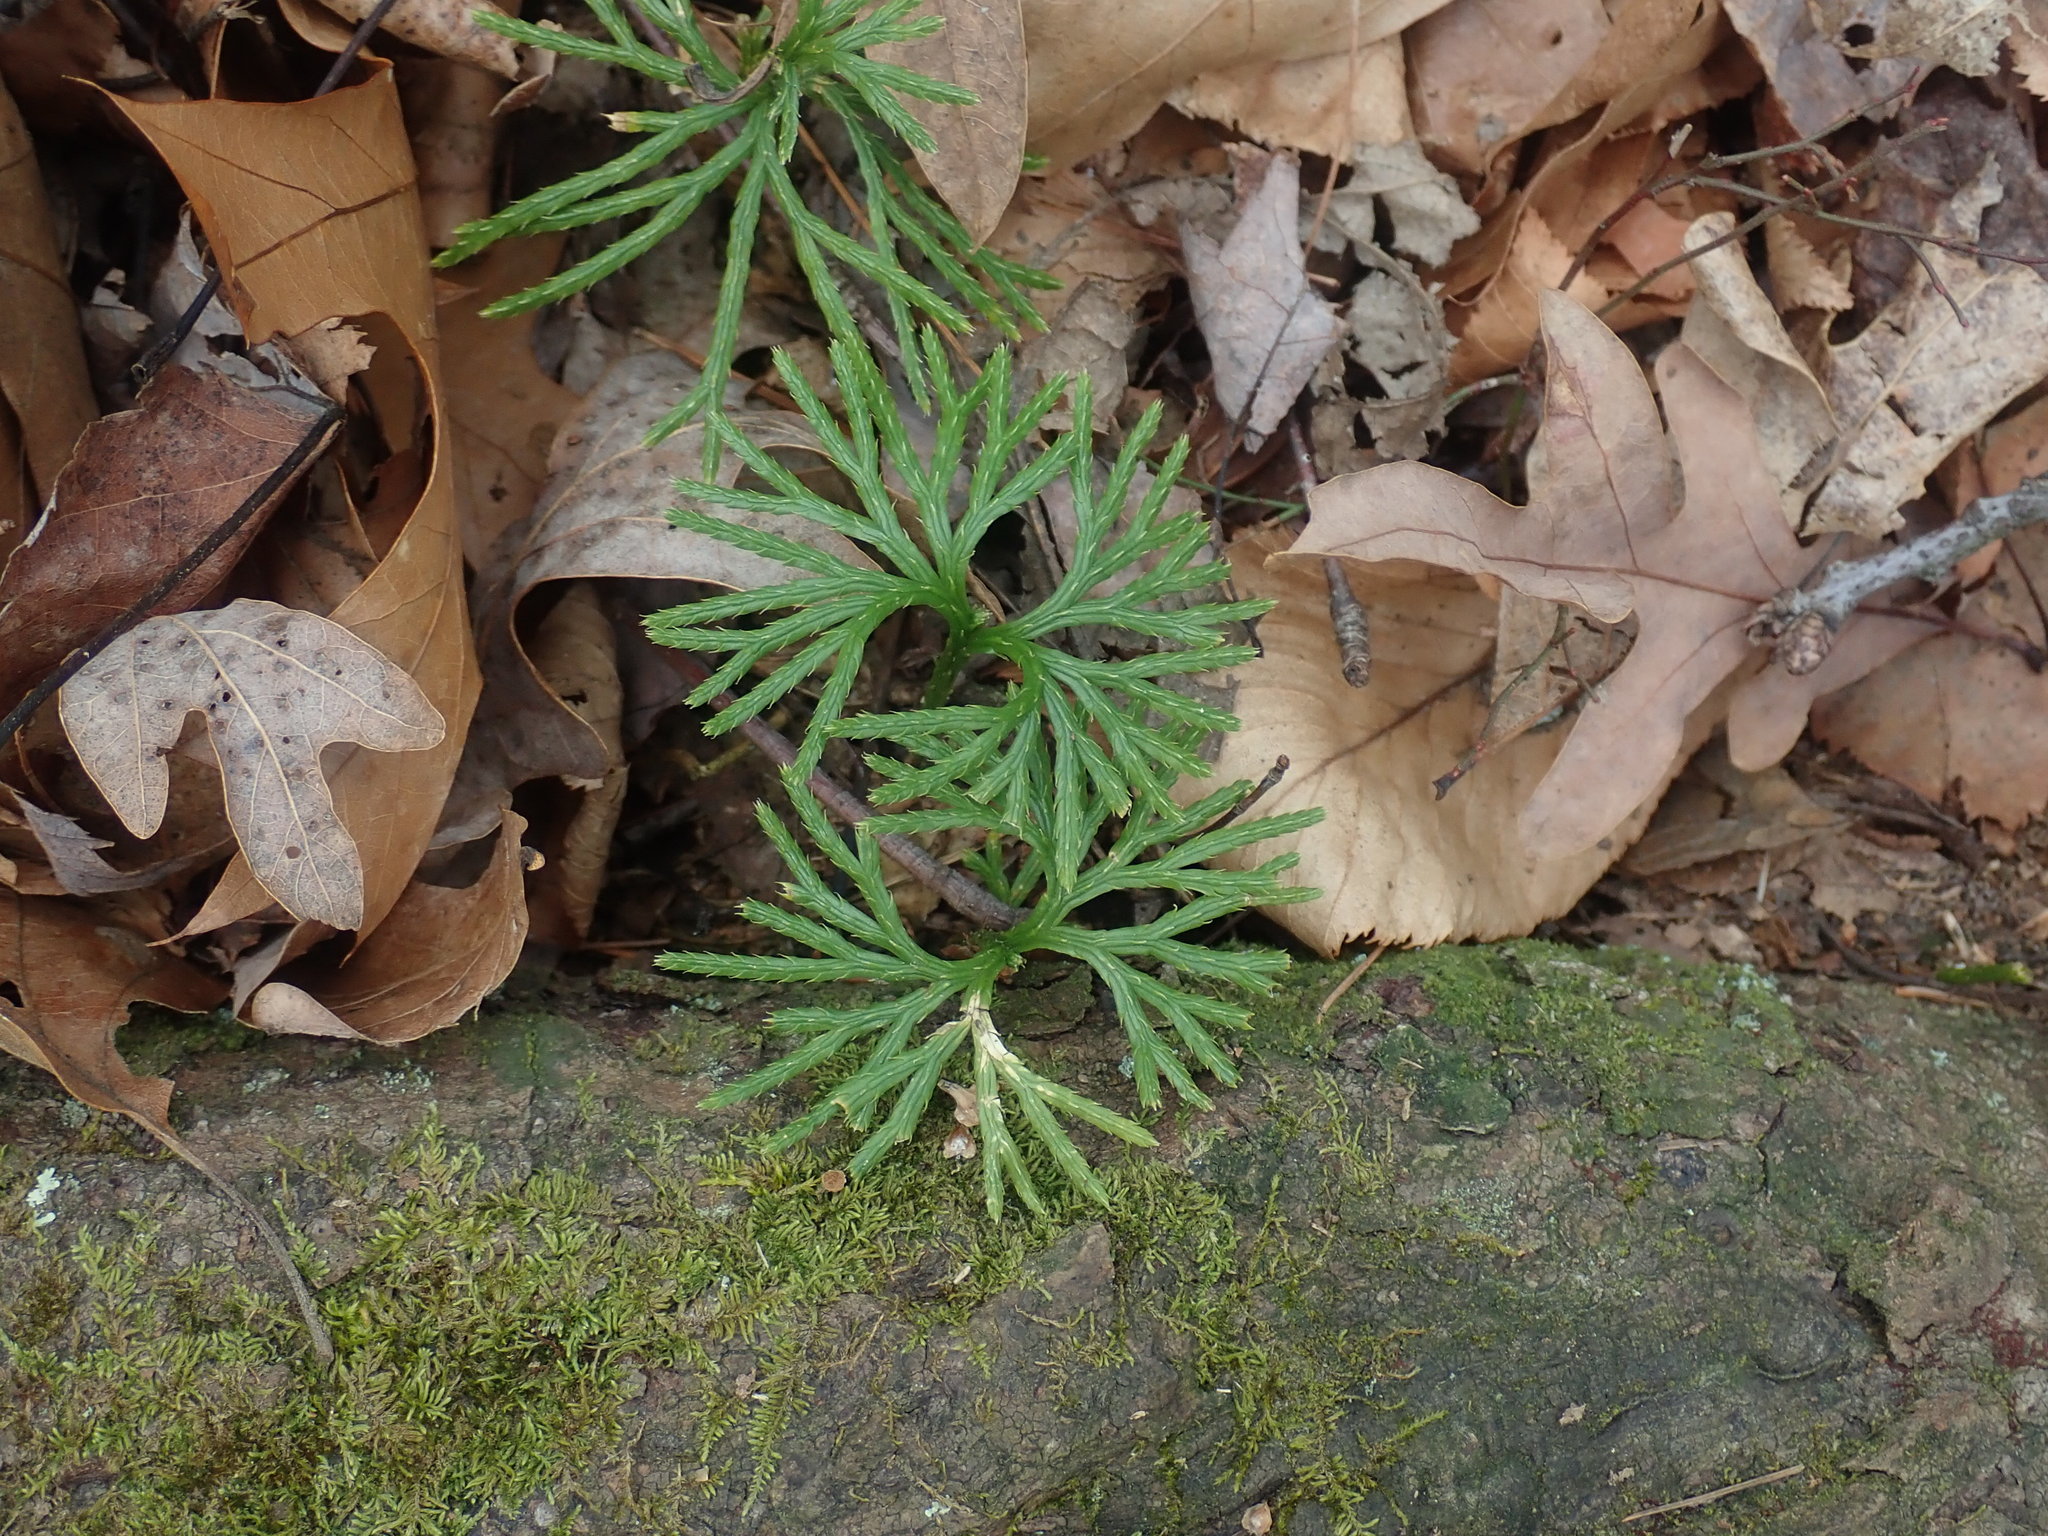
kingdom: Plantae
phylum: Tracheophyta
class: Lycopodiopsida
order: Lycopodiales
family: Lycopodiaceae
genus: Diphasiastrum
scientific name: Diphasiastrum digitatum
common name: Southern running-pine
